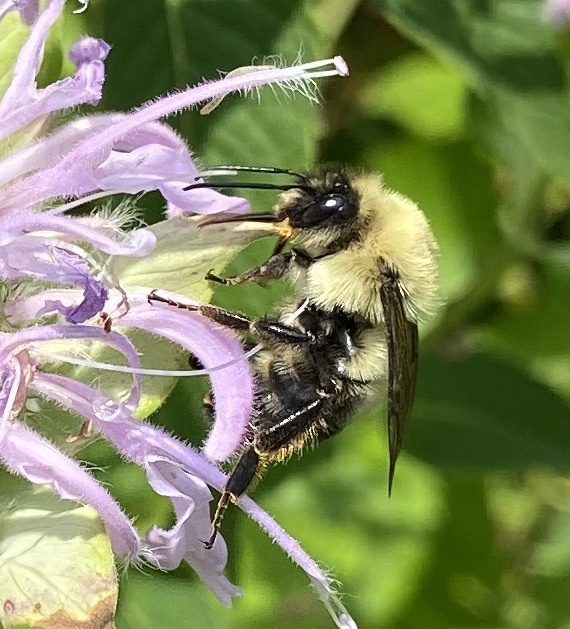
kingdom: Animalia
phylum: Arthropoda
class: Insecta
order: Hymenoptera
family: Apidae
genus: Bombus
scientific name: Bombus bimaculatus
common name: Two-spotted bumble bee
